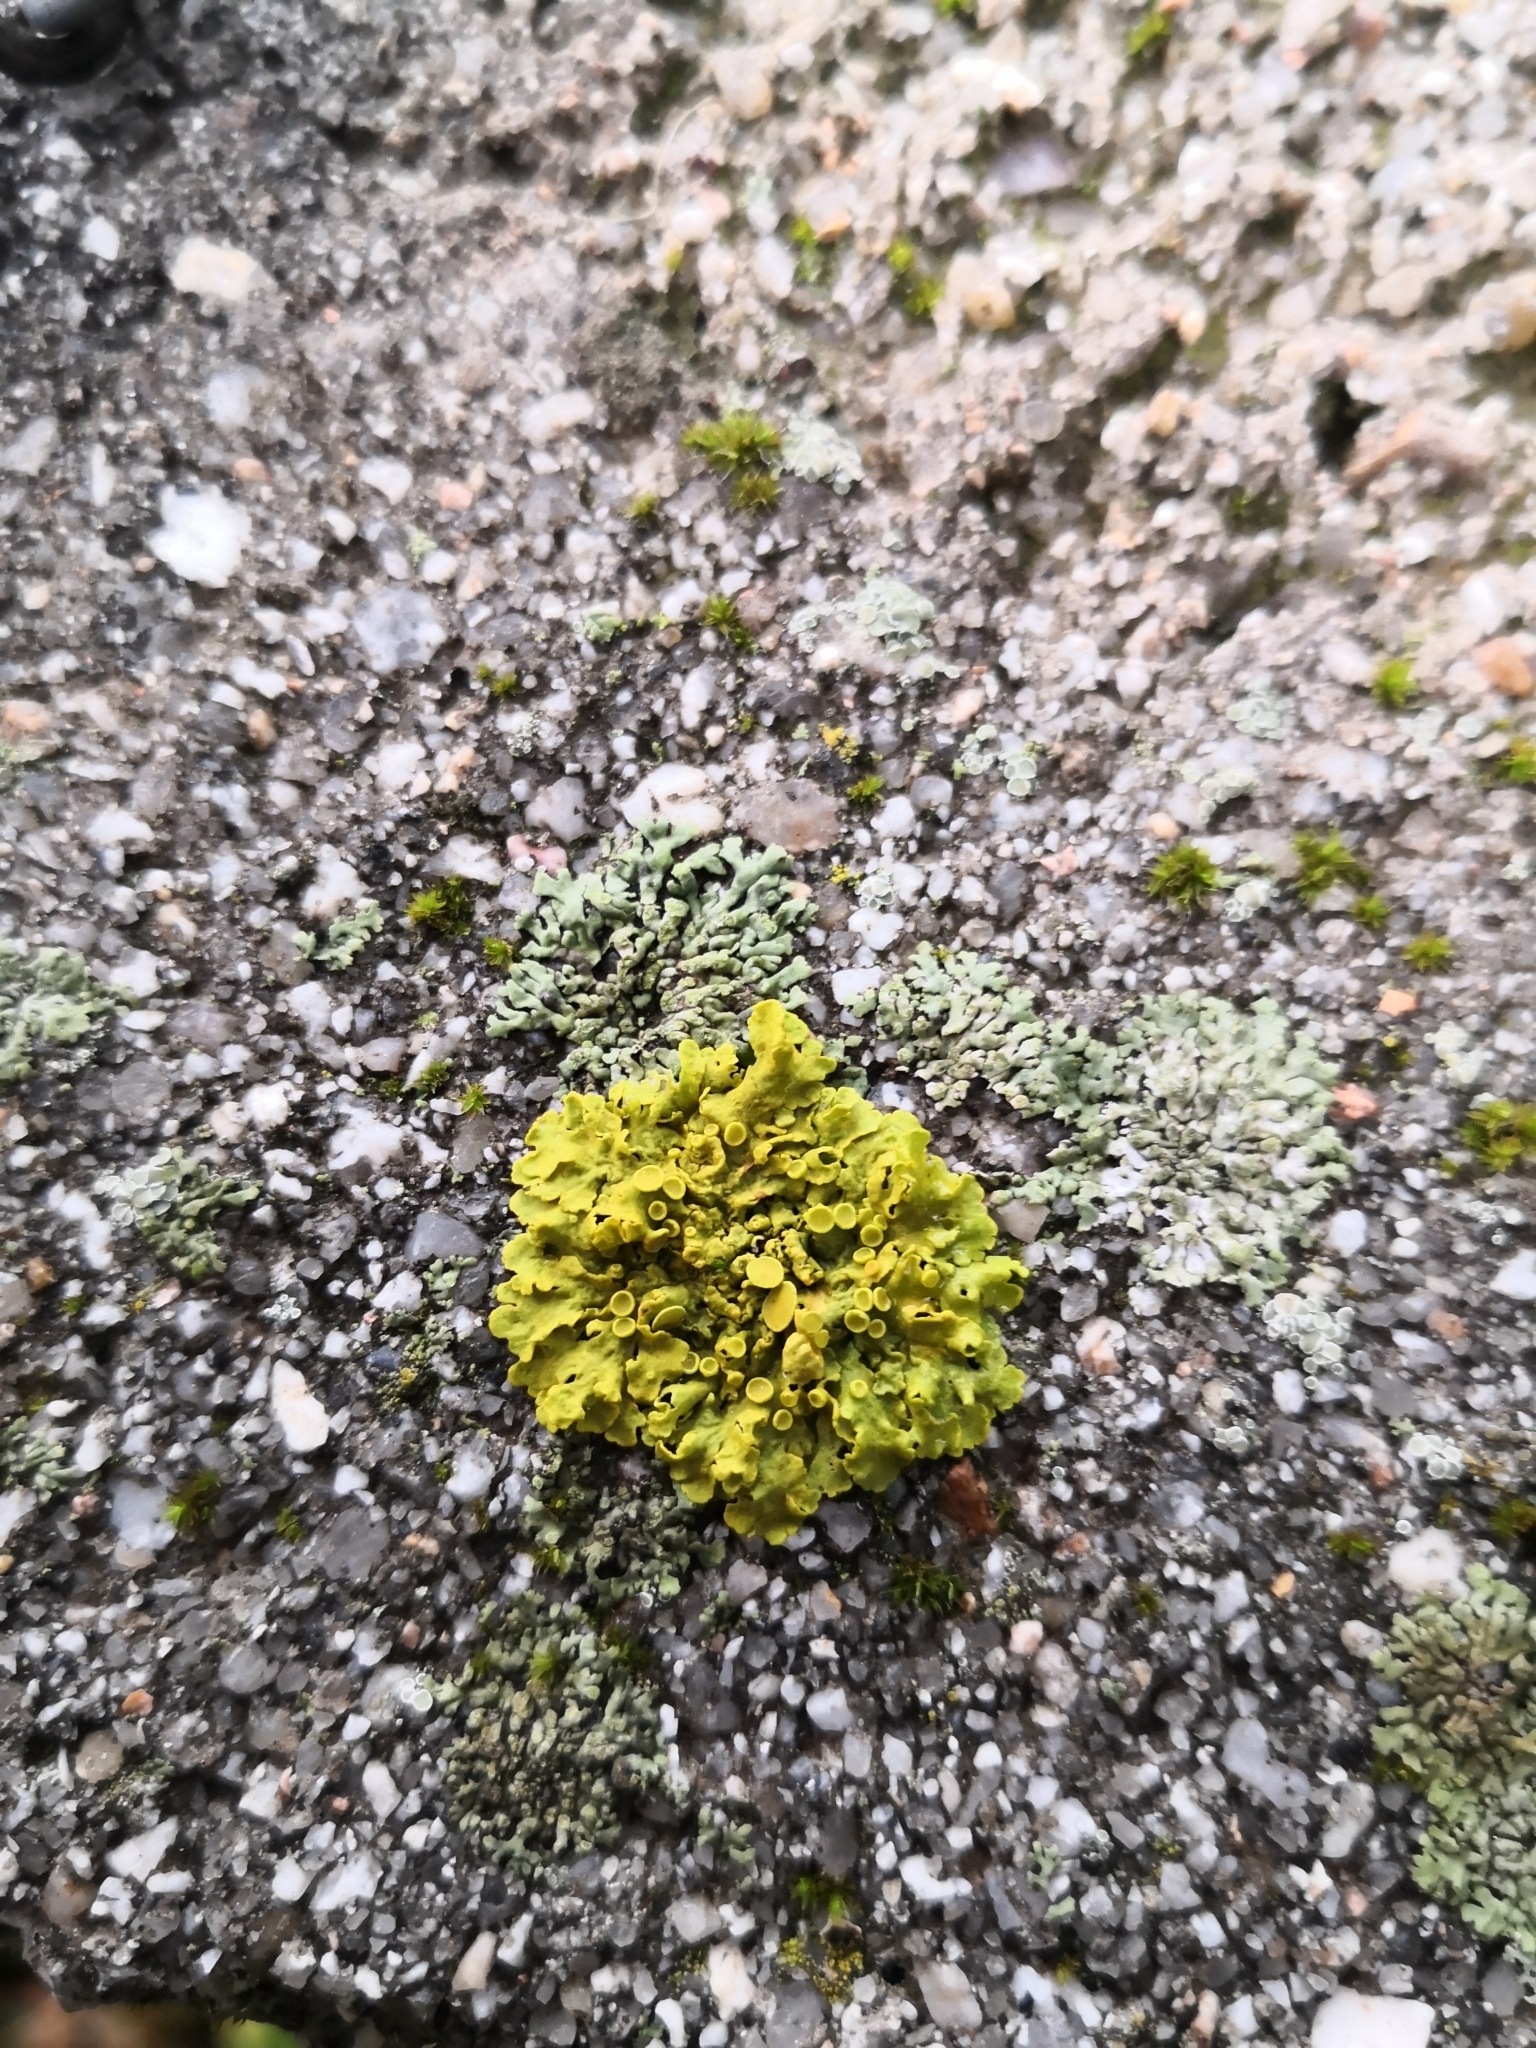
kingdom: Fungi
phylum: Ascomycota
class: Lecanoromycetes
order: Teloschistales
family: Teloschistaceae
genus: Xanthoria
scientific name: Xanthoria parietina
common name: Common orange lichen
